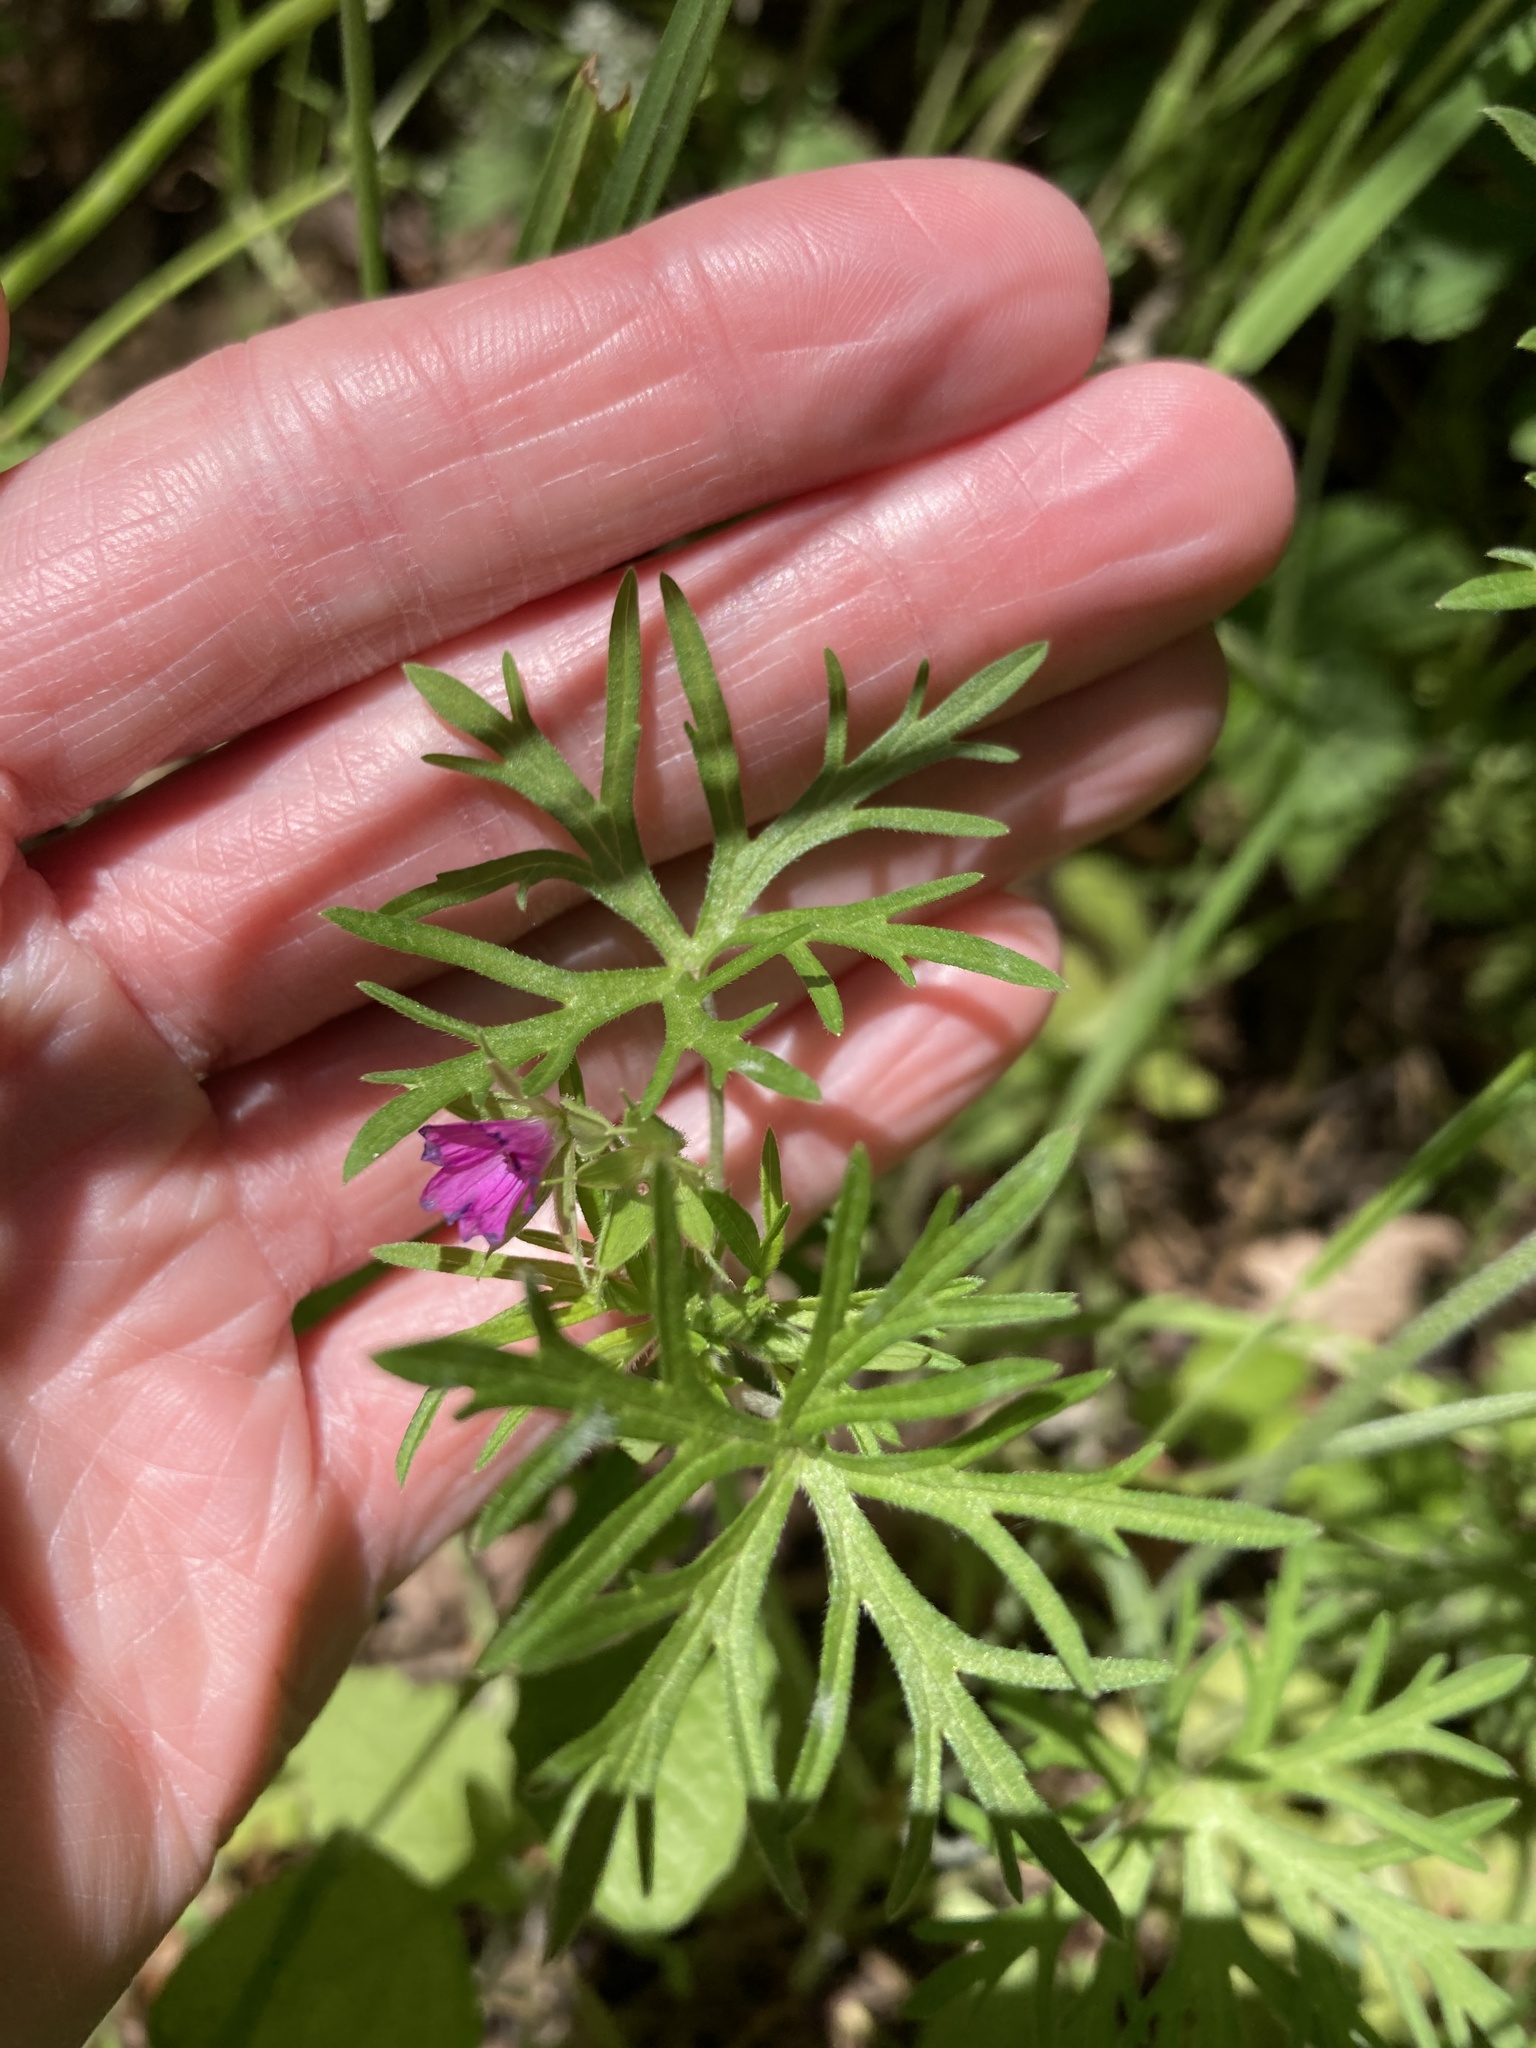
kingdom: Plantae
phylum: Tracheophyta
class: Magnoliopsida
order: Geraniales
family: Geraniaceae
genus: Geranium
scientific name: Geranium dissectum
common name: Cut-leaved crane's-bill
